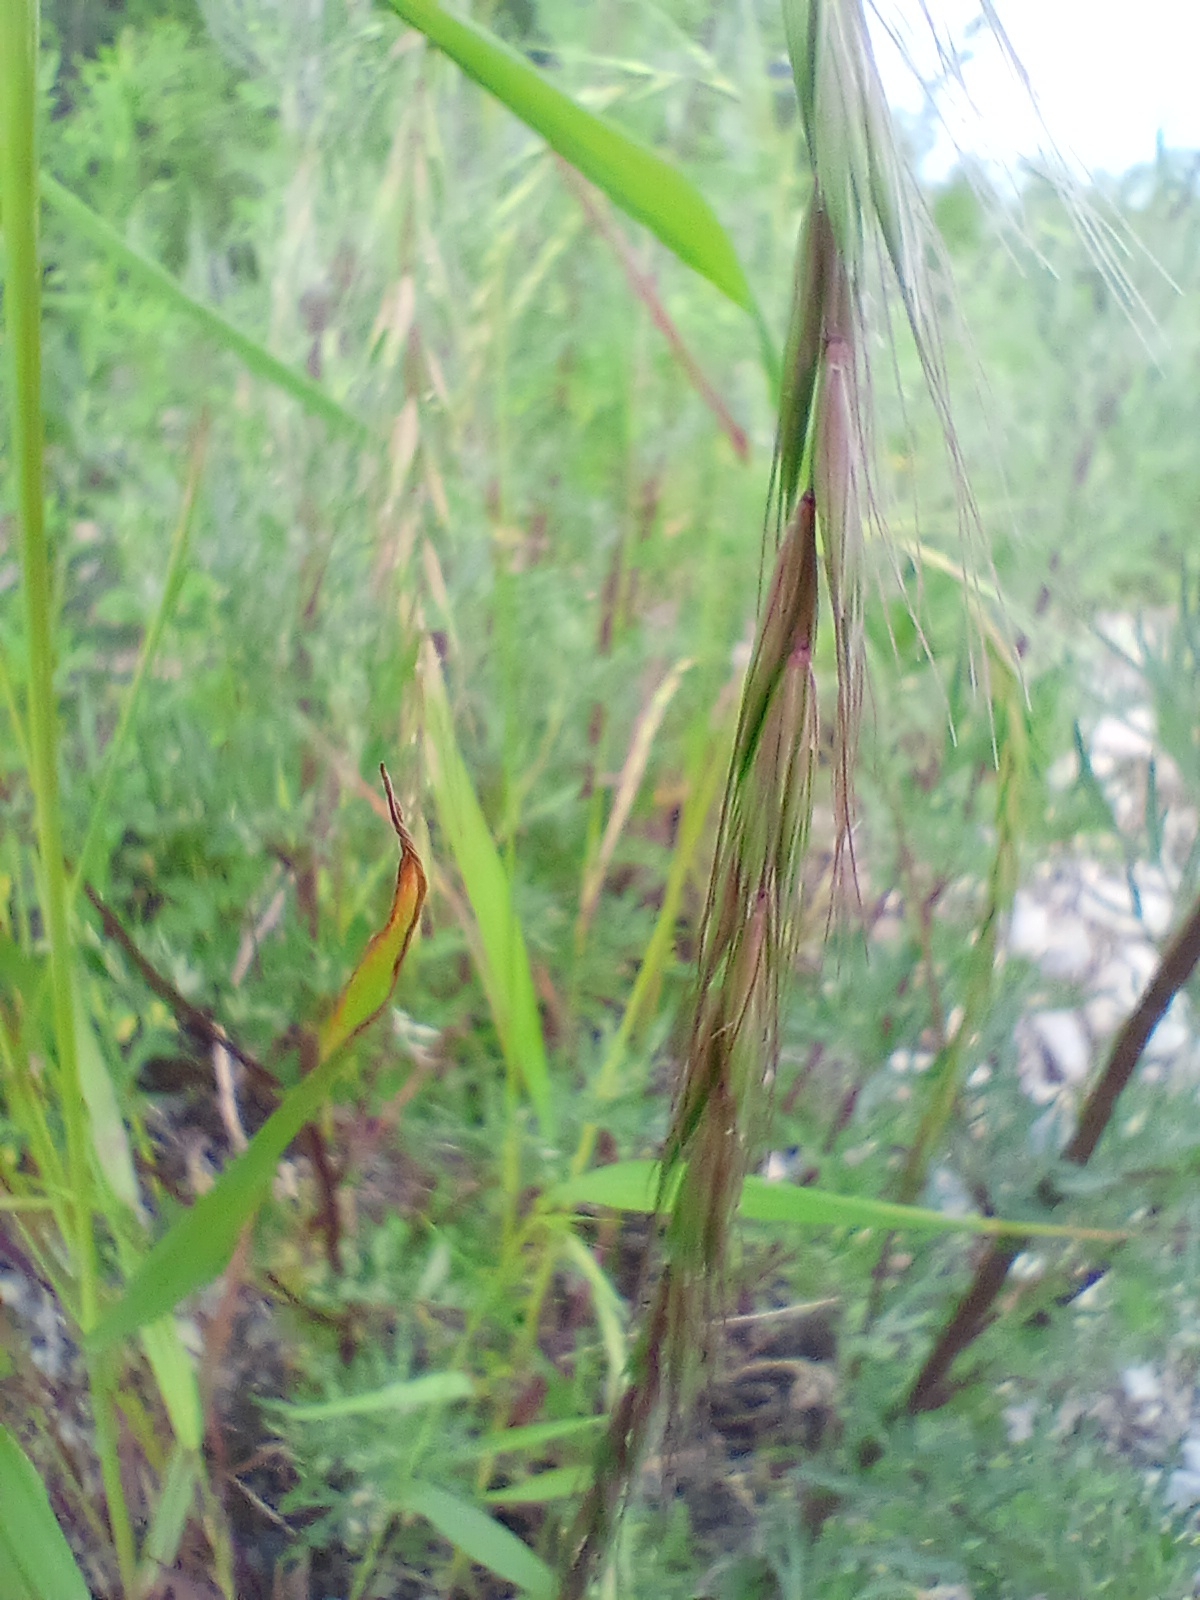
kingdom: Plantae
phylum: Tracheophyta
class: Liliopsida
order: Poales
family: Poaceae
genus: Elymus
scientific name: Elymus sibiricus
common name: Siberian wildrye
